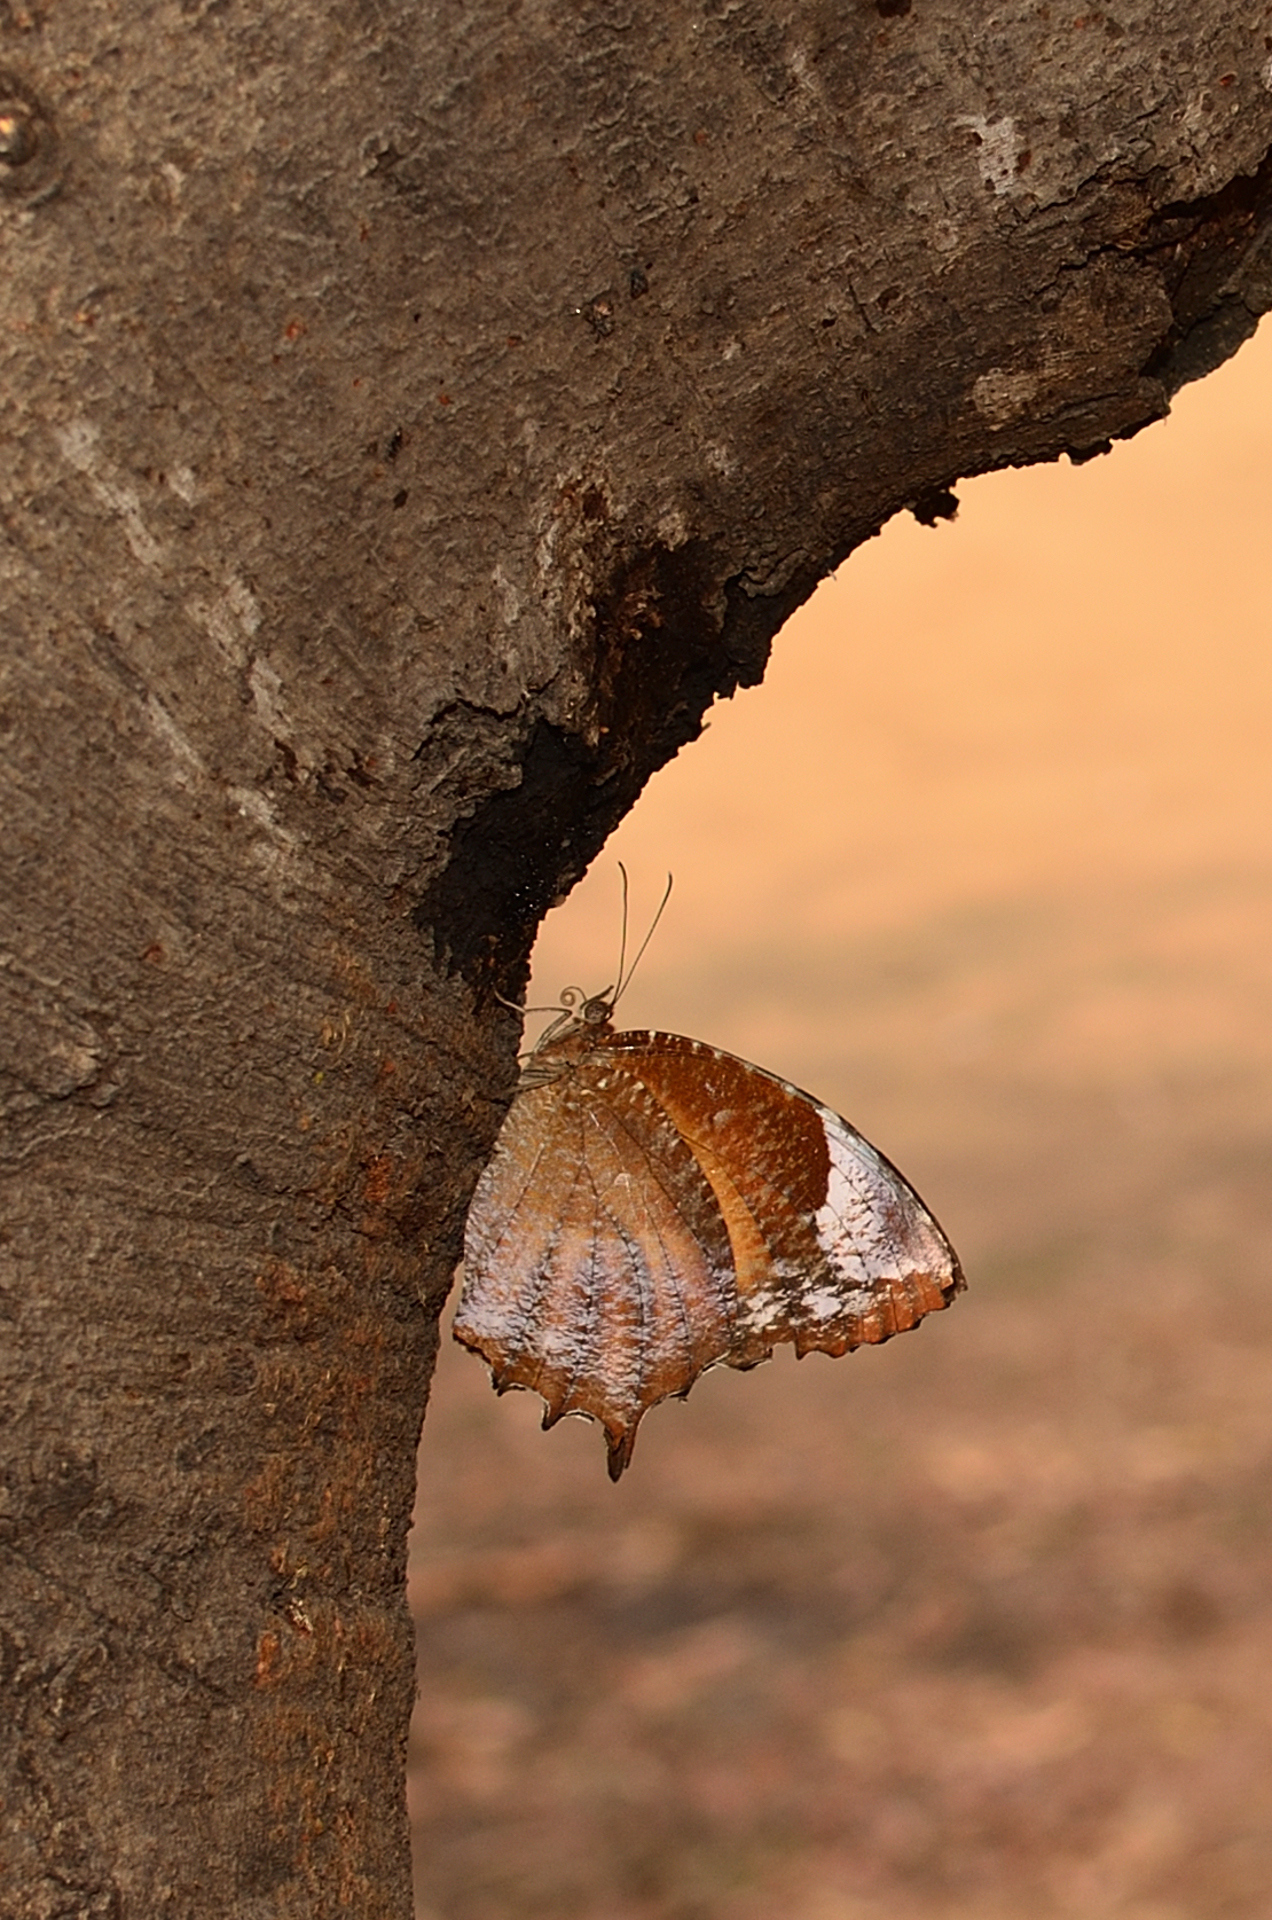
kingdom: Animalia
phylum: Arthropoda
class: Insecta
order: Lepidoptera
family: Nymphalidae
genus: Elymnias
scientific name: Elymnias caudata
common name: Tailed palmfly
